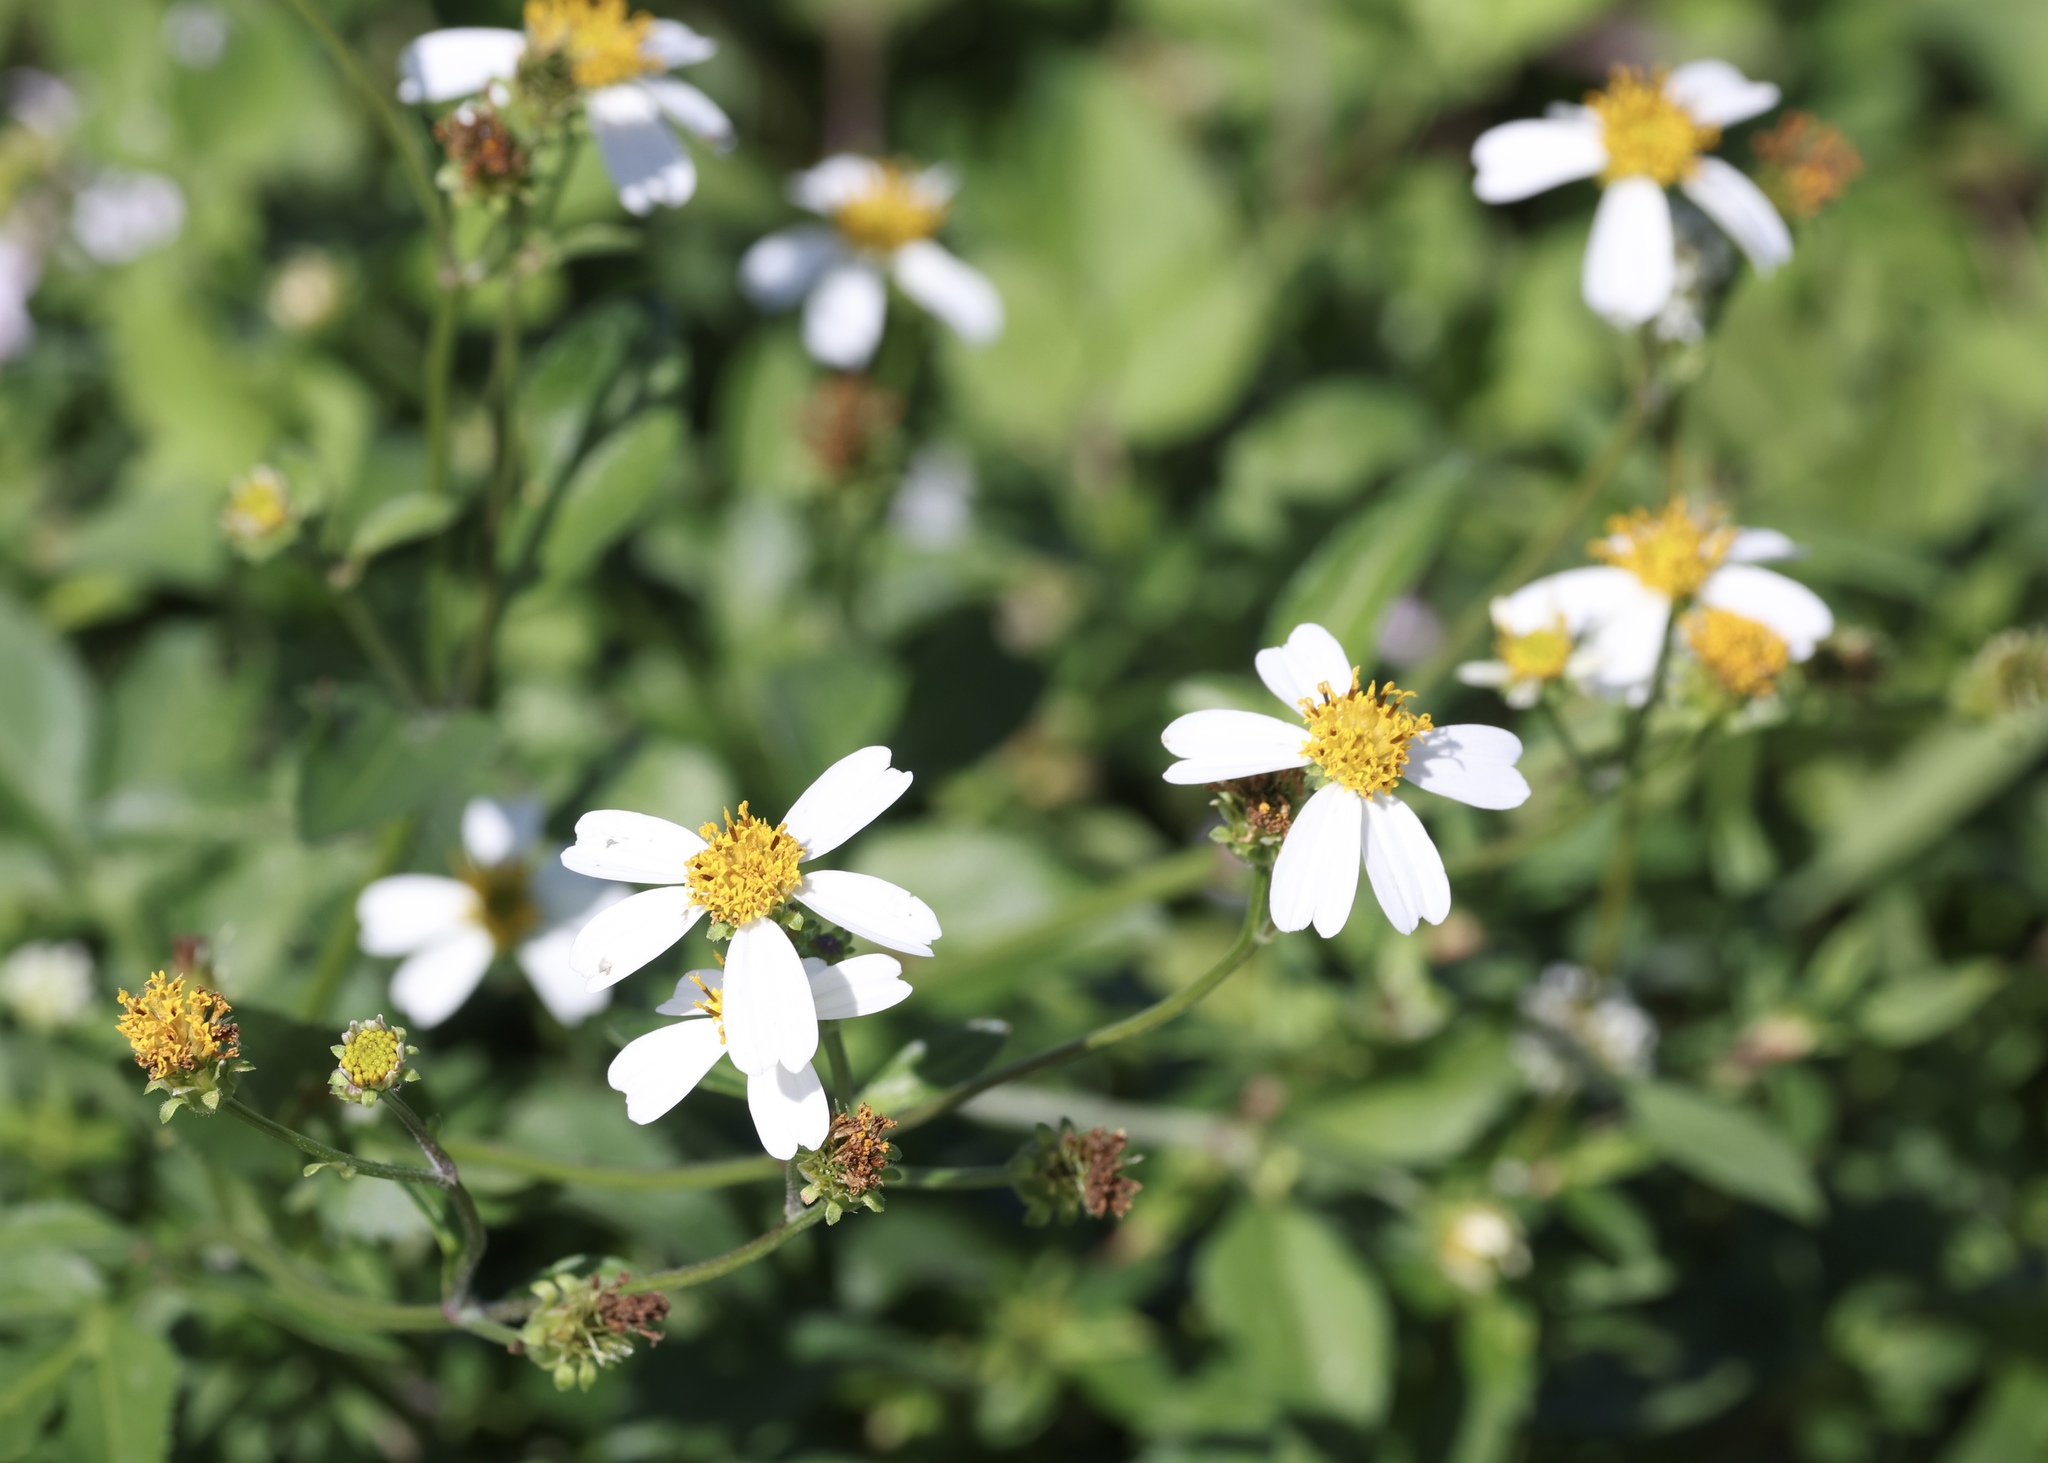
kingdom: Plantae
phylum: Tracheophyta
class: Magnoliopsida
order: Asterales
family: Asteraceae
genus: Bidens
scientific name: Bidens alba
